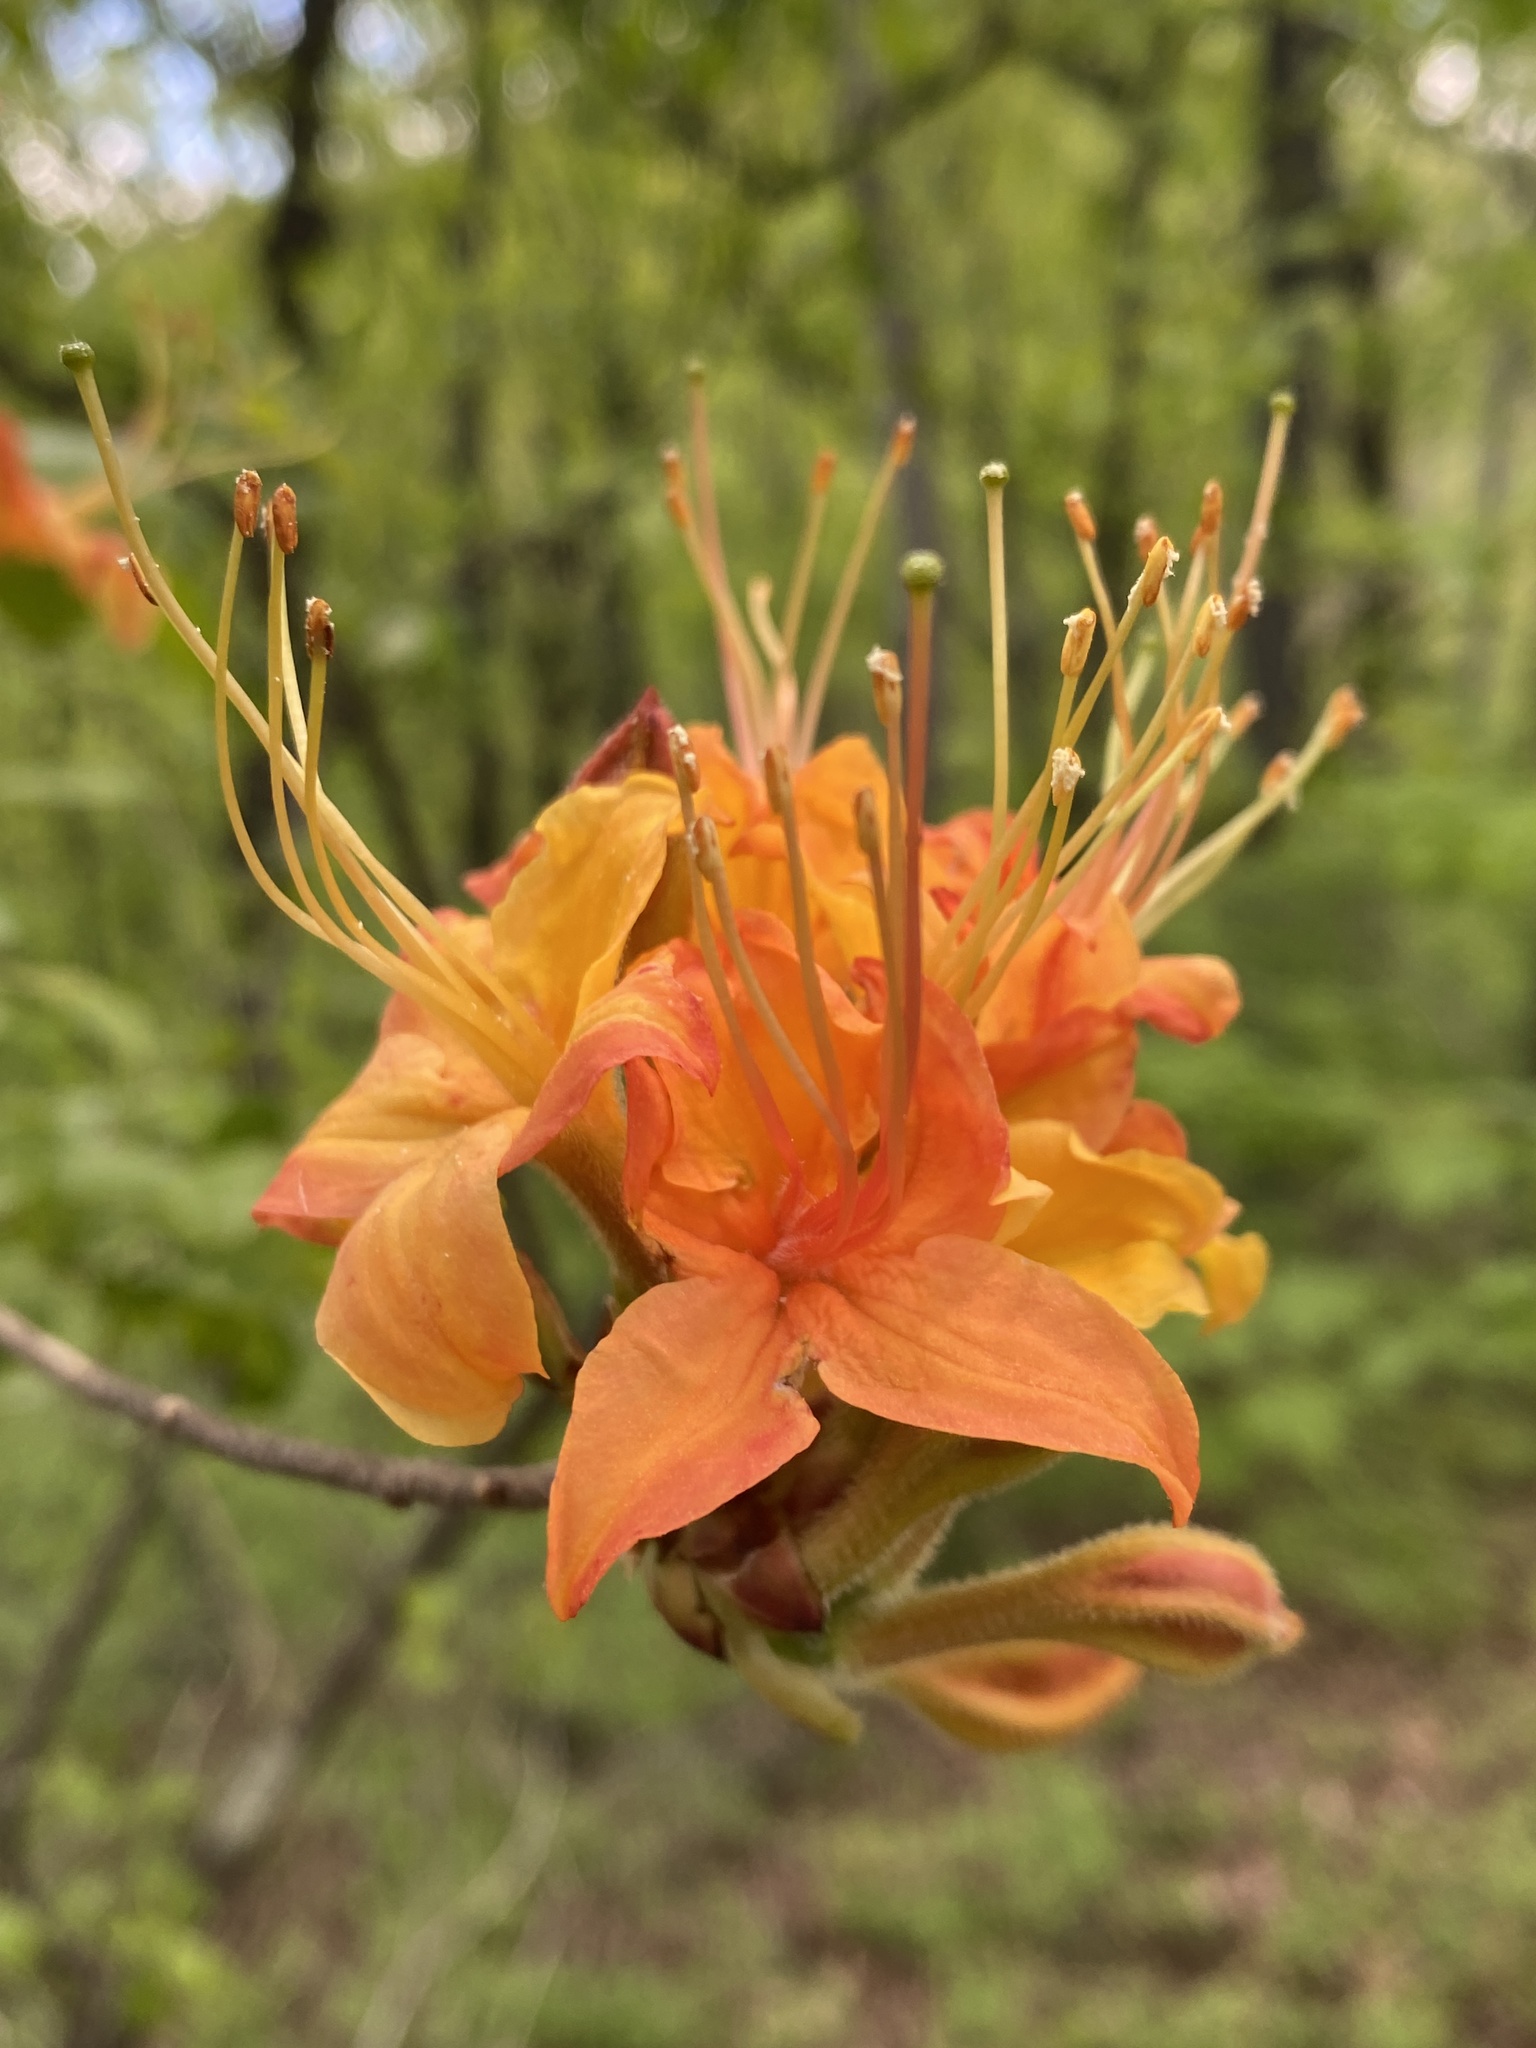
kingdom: Plantae
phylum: Tracheophyta
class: Magnoliopsida
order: Ericales
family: Ericaceae
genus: Rhododendron
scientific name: Rhododendron calendulaceum
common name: Flame azalea
